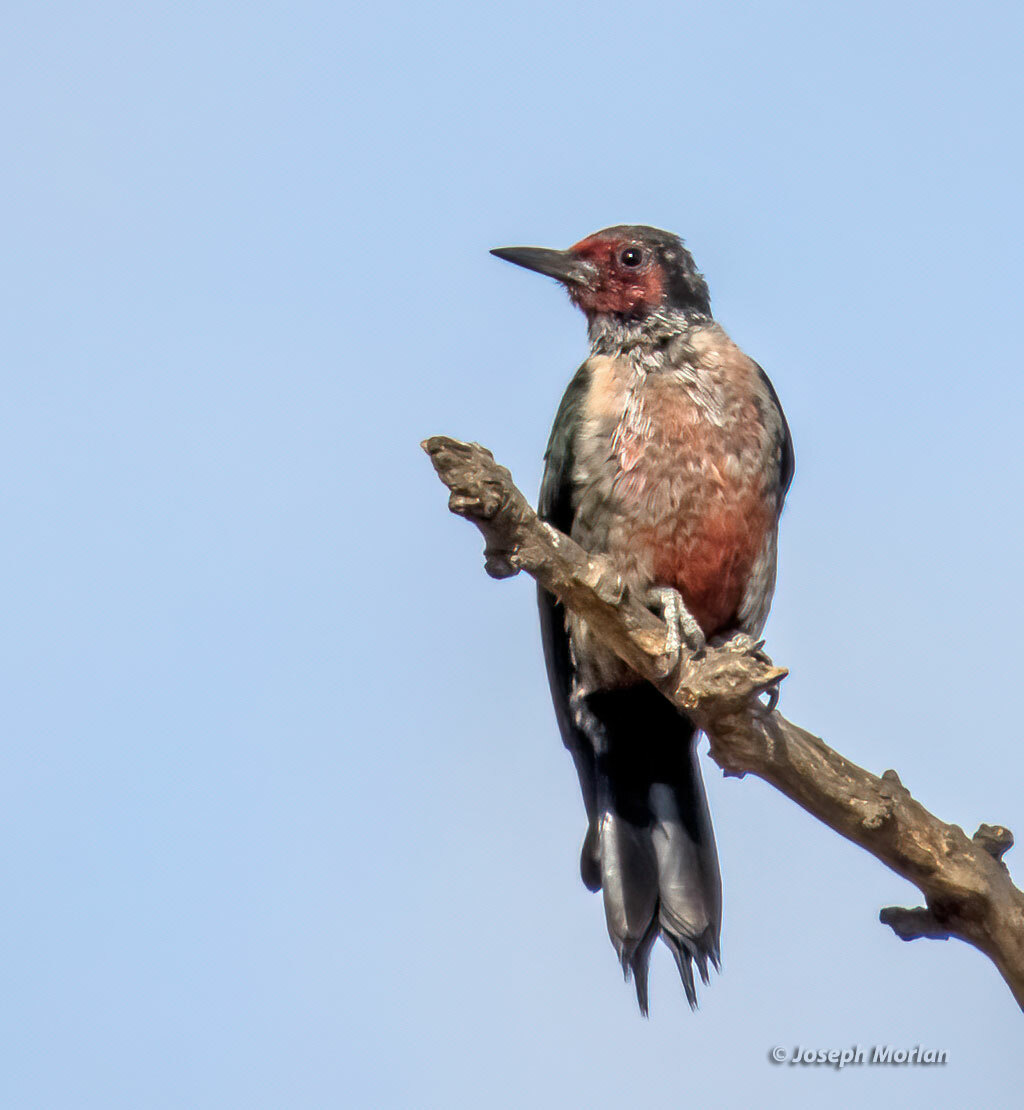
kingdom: Animalia
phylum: Chordata
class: Aves
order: Piciformes
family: Picidae
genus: Melanerpes
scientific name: Melanerpes lewis
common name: Lewis's woodpecker
